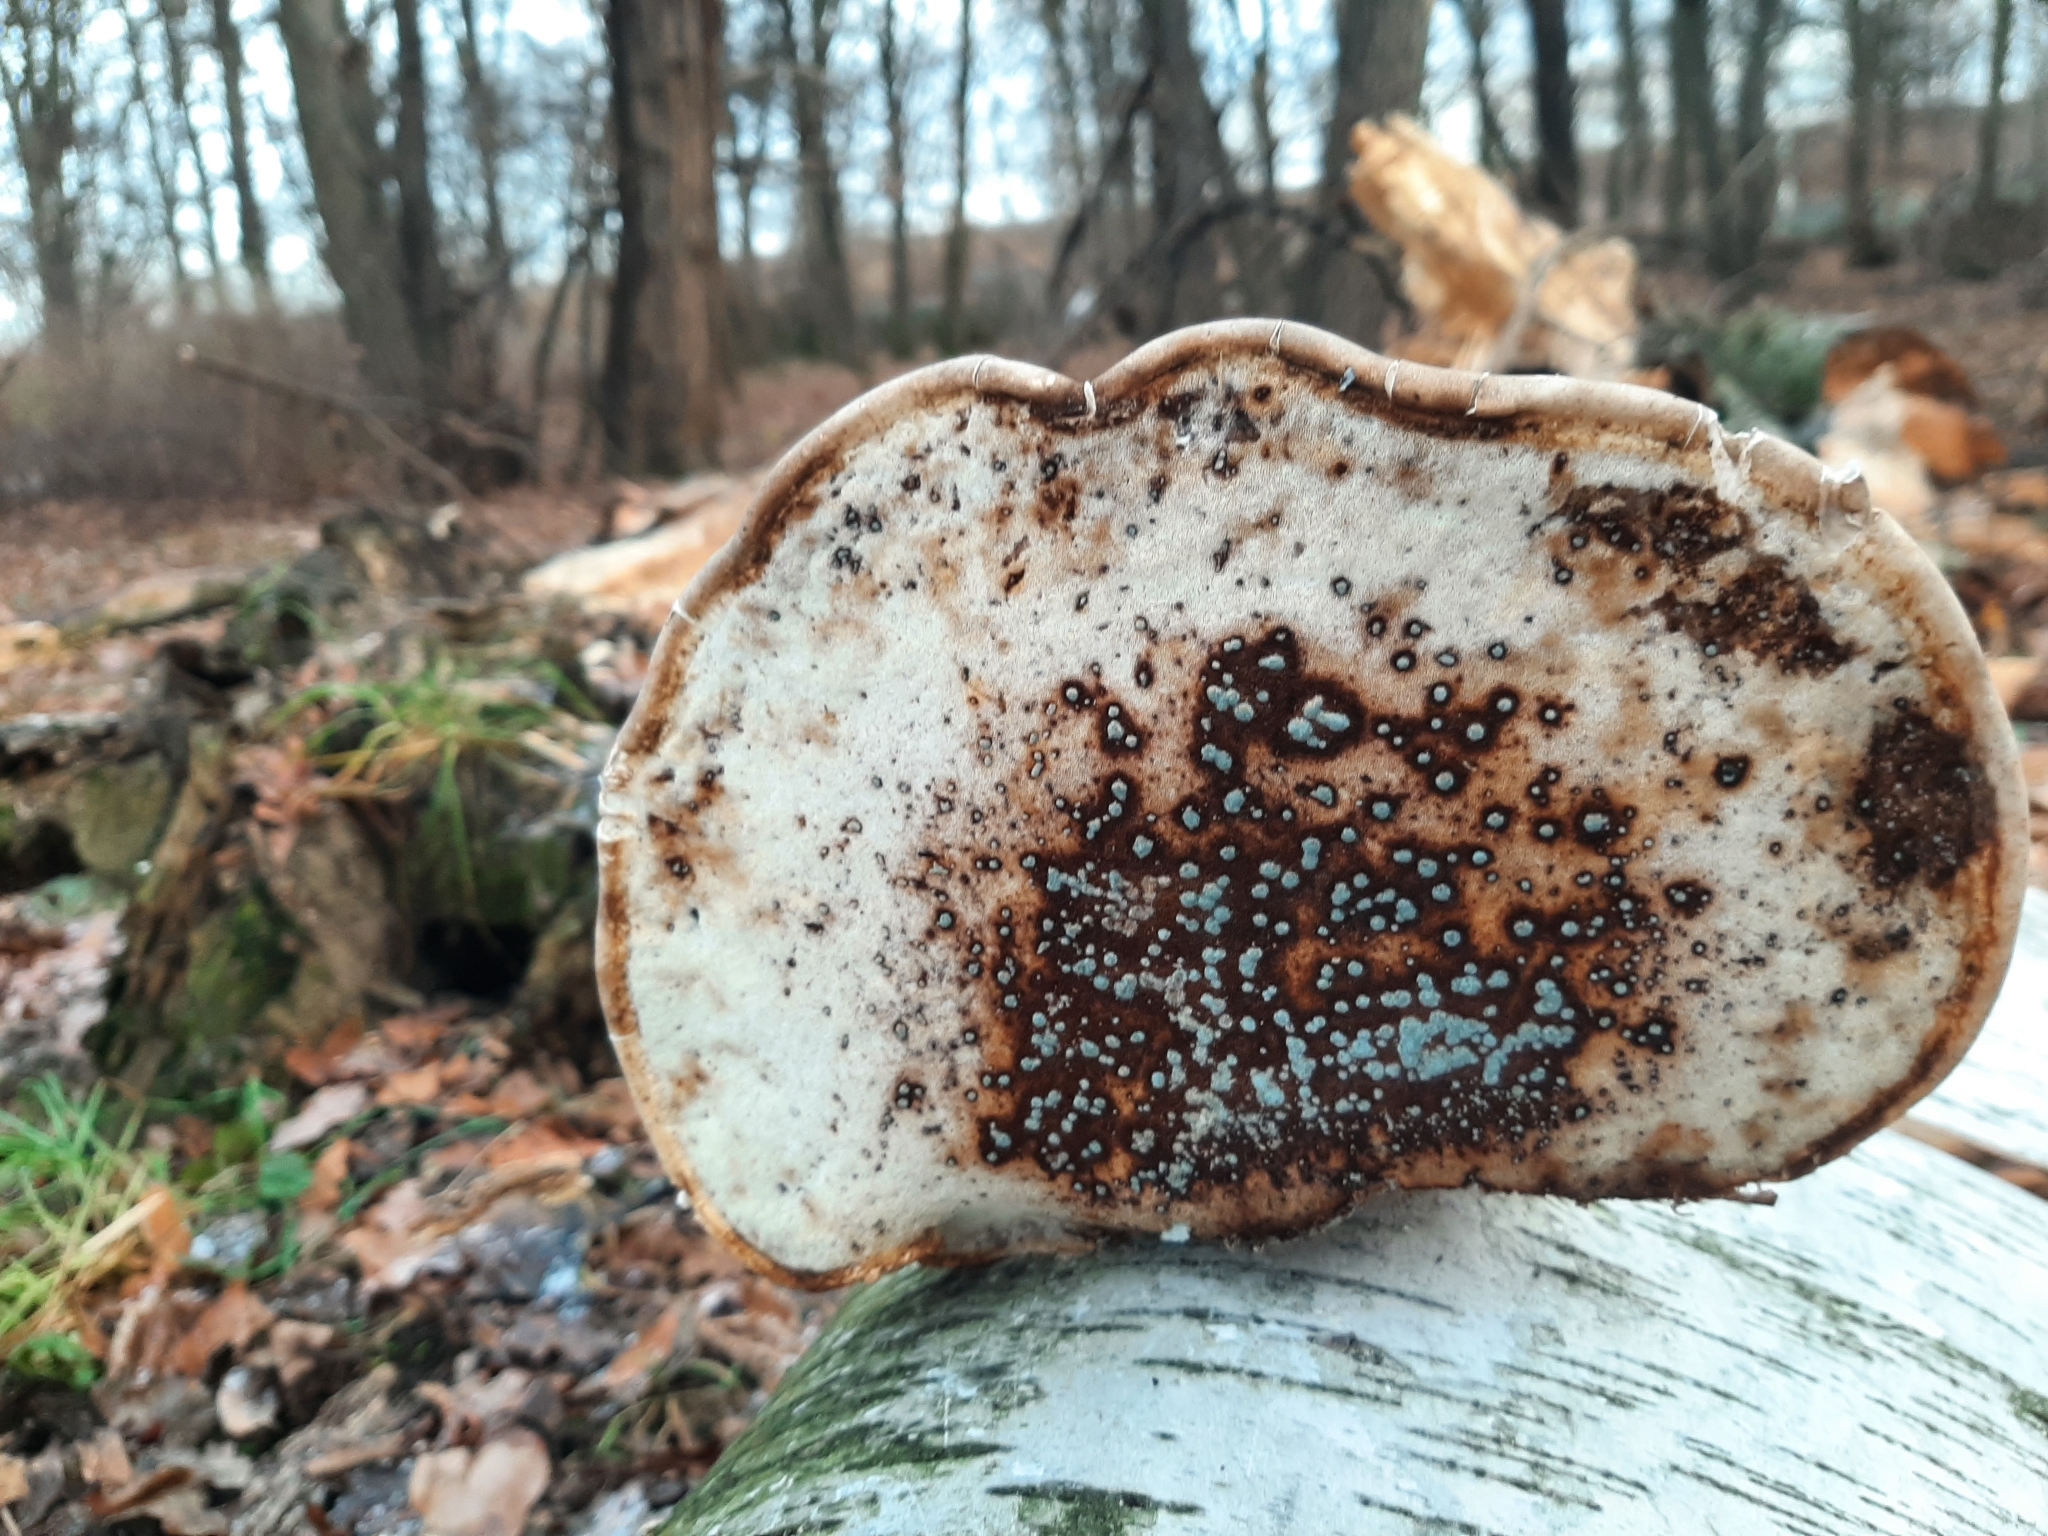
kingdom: Fungi
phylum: Basidiomycota
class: Agaricomycetes
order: Polyporales
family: Fomitopsidaceae
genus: Fomitopsis
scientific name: Fomitopsis betulina
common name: Birch polypore
